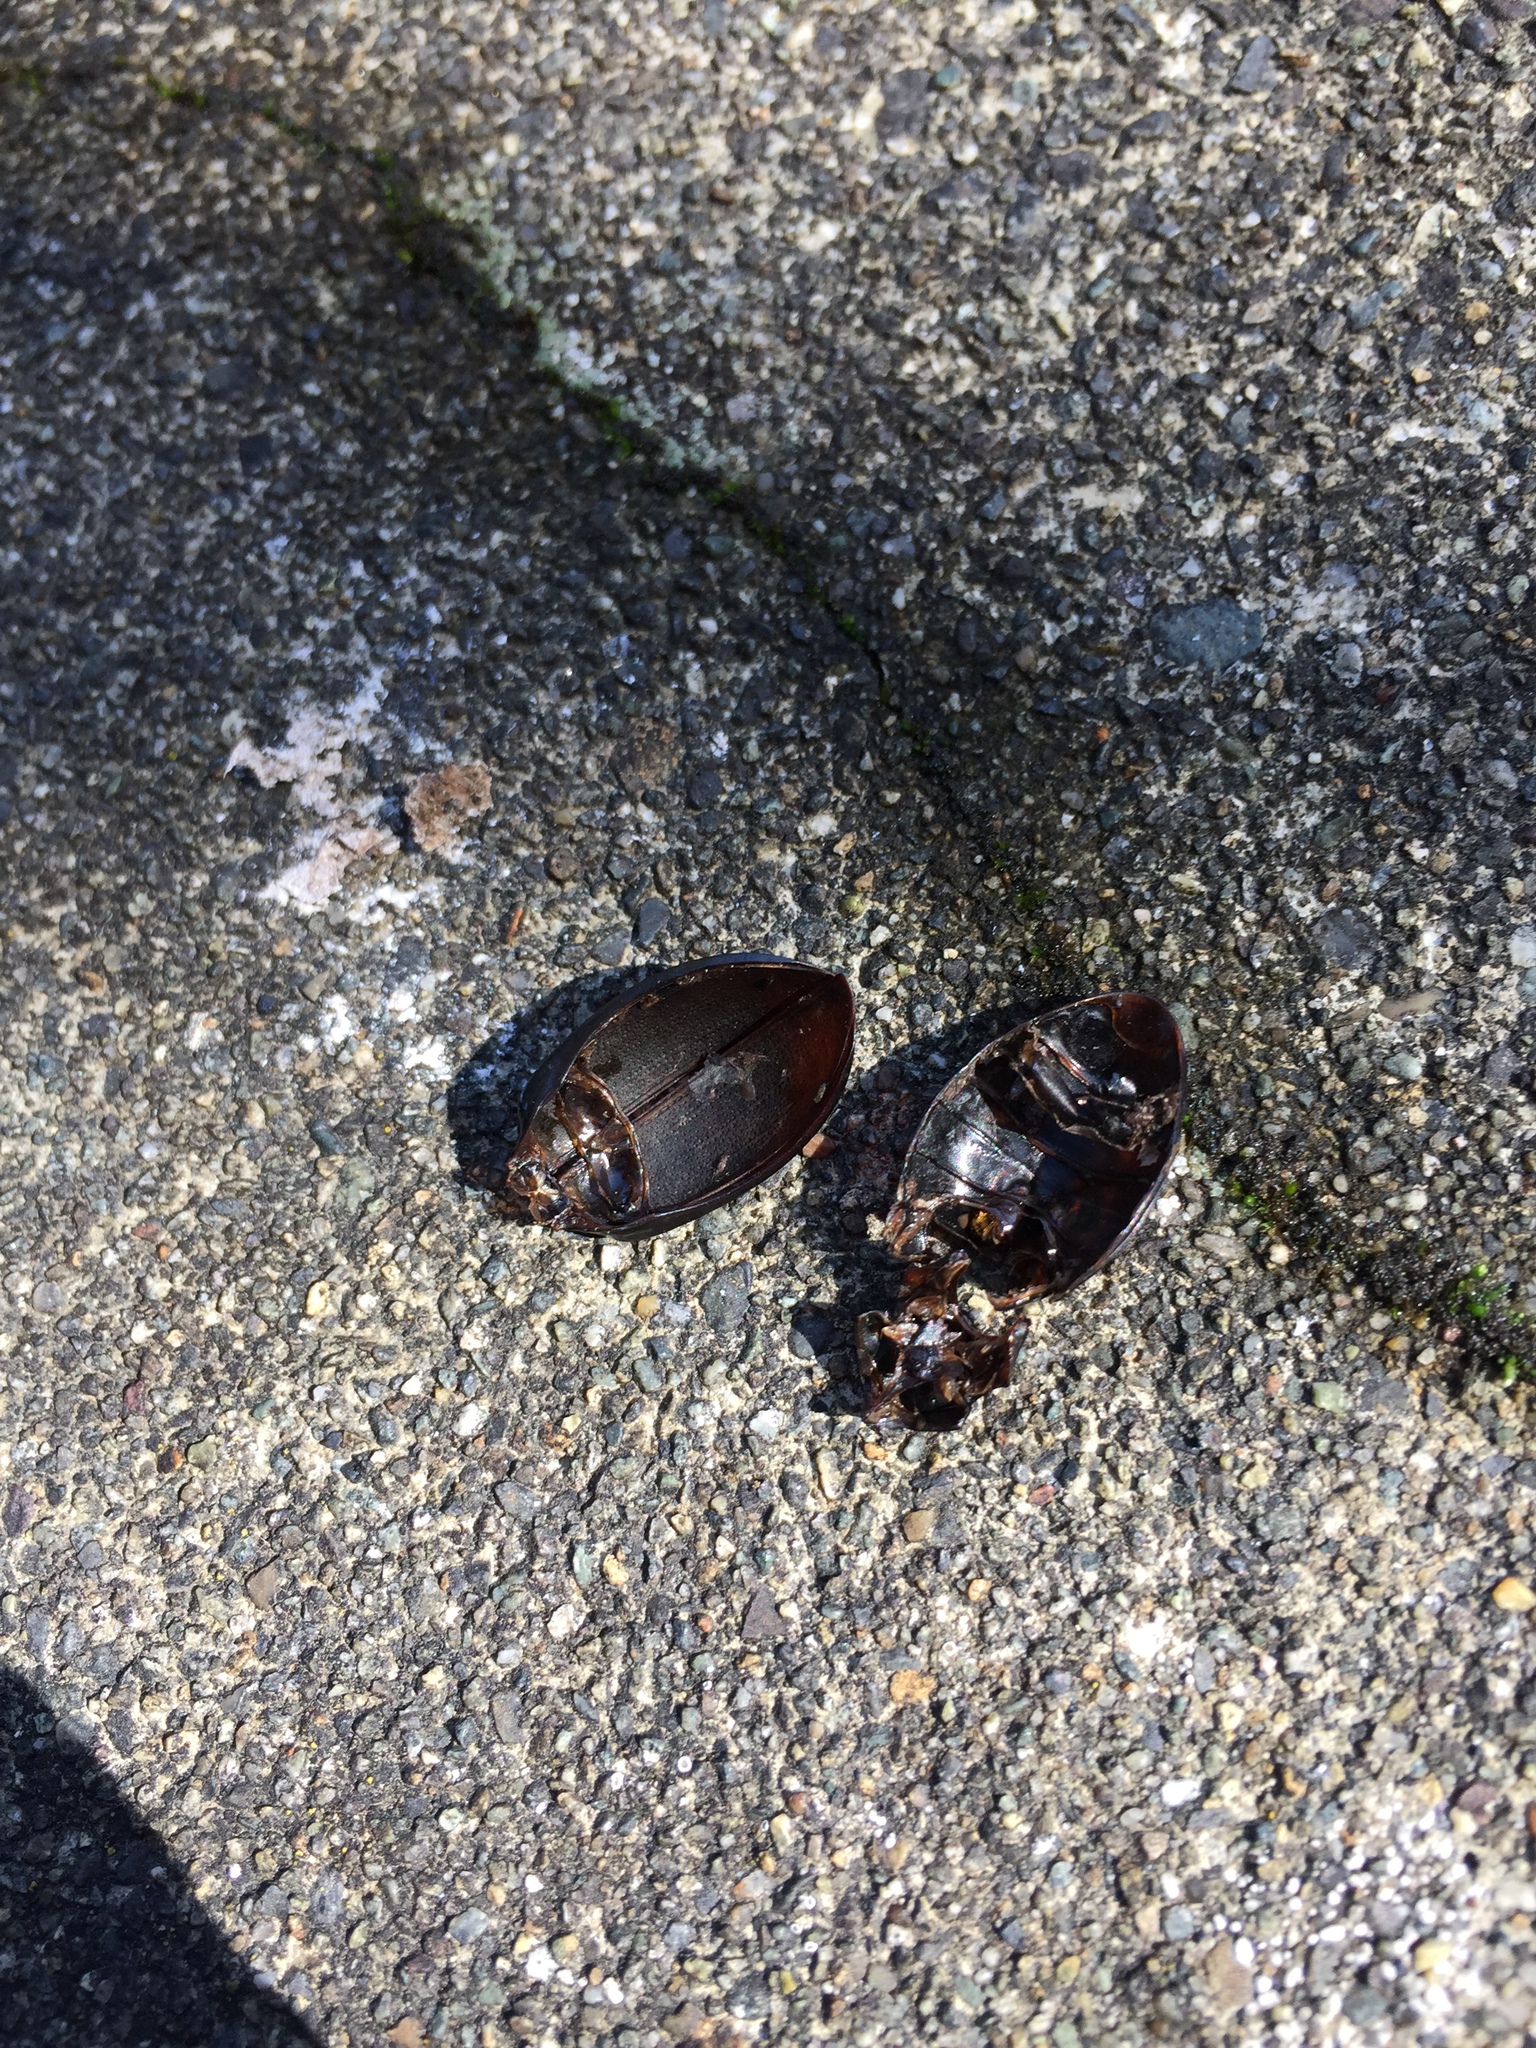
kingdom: Animalia
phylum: Arthropoda
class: Insecta
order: Coleoptera
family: Carabidae
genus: Carabus
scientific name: Carabus nemoralis
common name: European ground beetle
